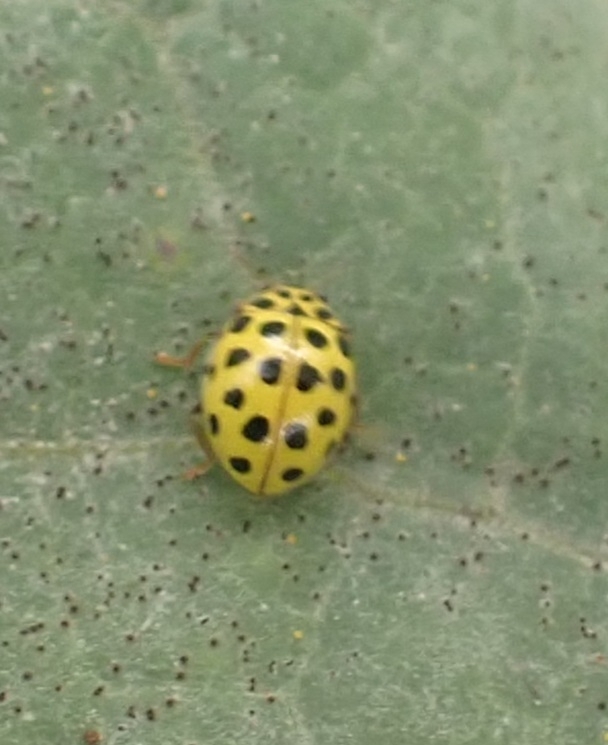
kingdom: Animalia
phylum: Arthropoda
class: Insecta
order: Coleoptera
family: Coccinellidae
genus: Psyllobora
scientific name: Psyllobora vigintiduopunctata
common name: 22-spot ladybird
